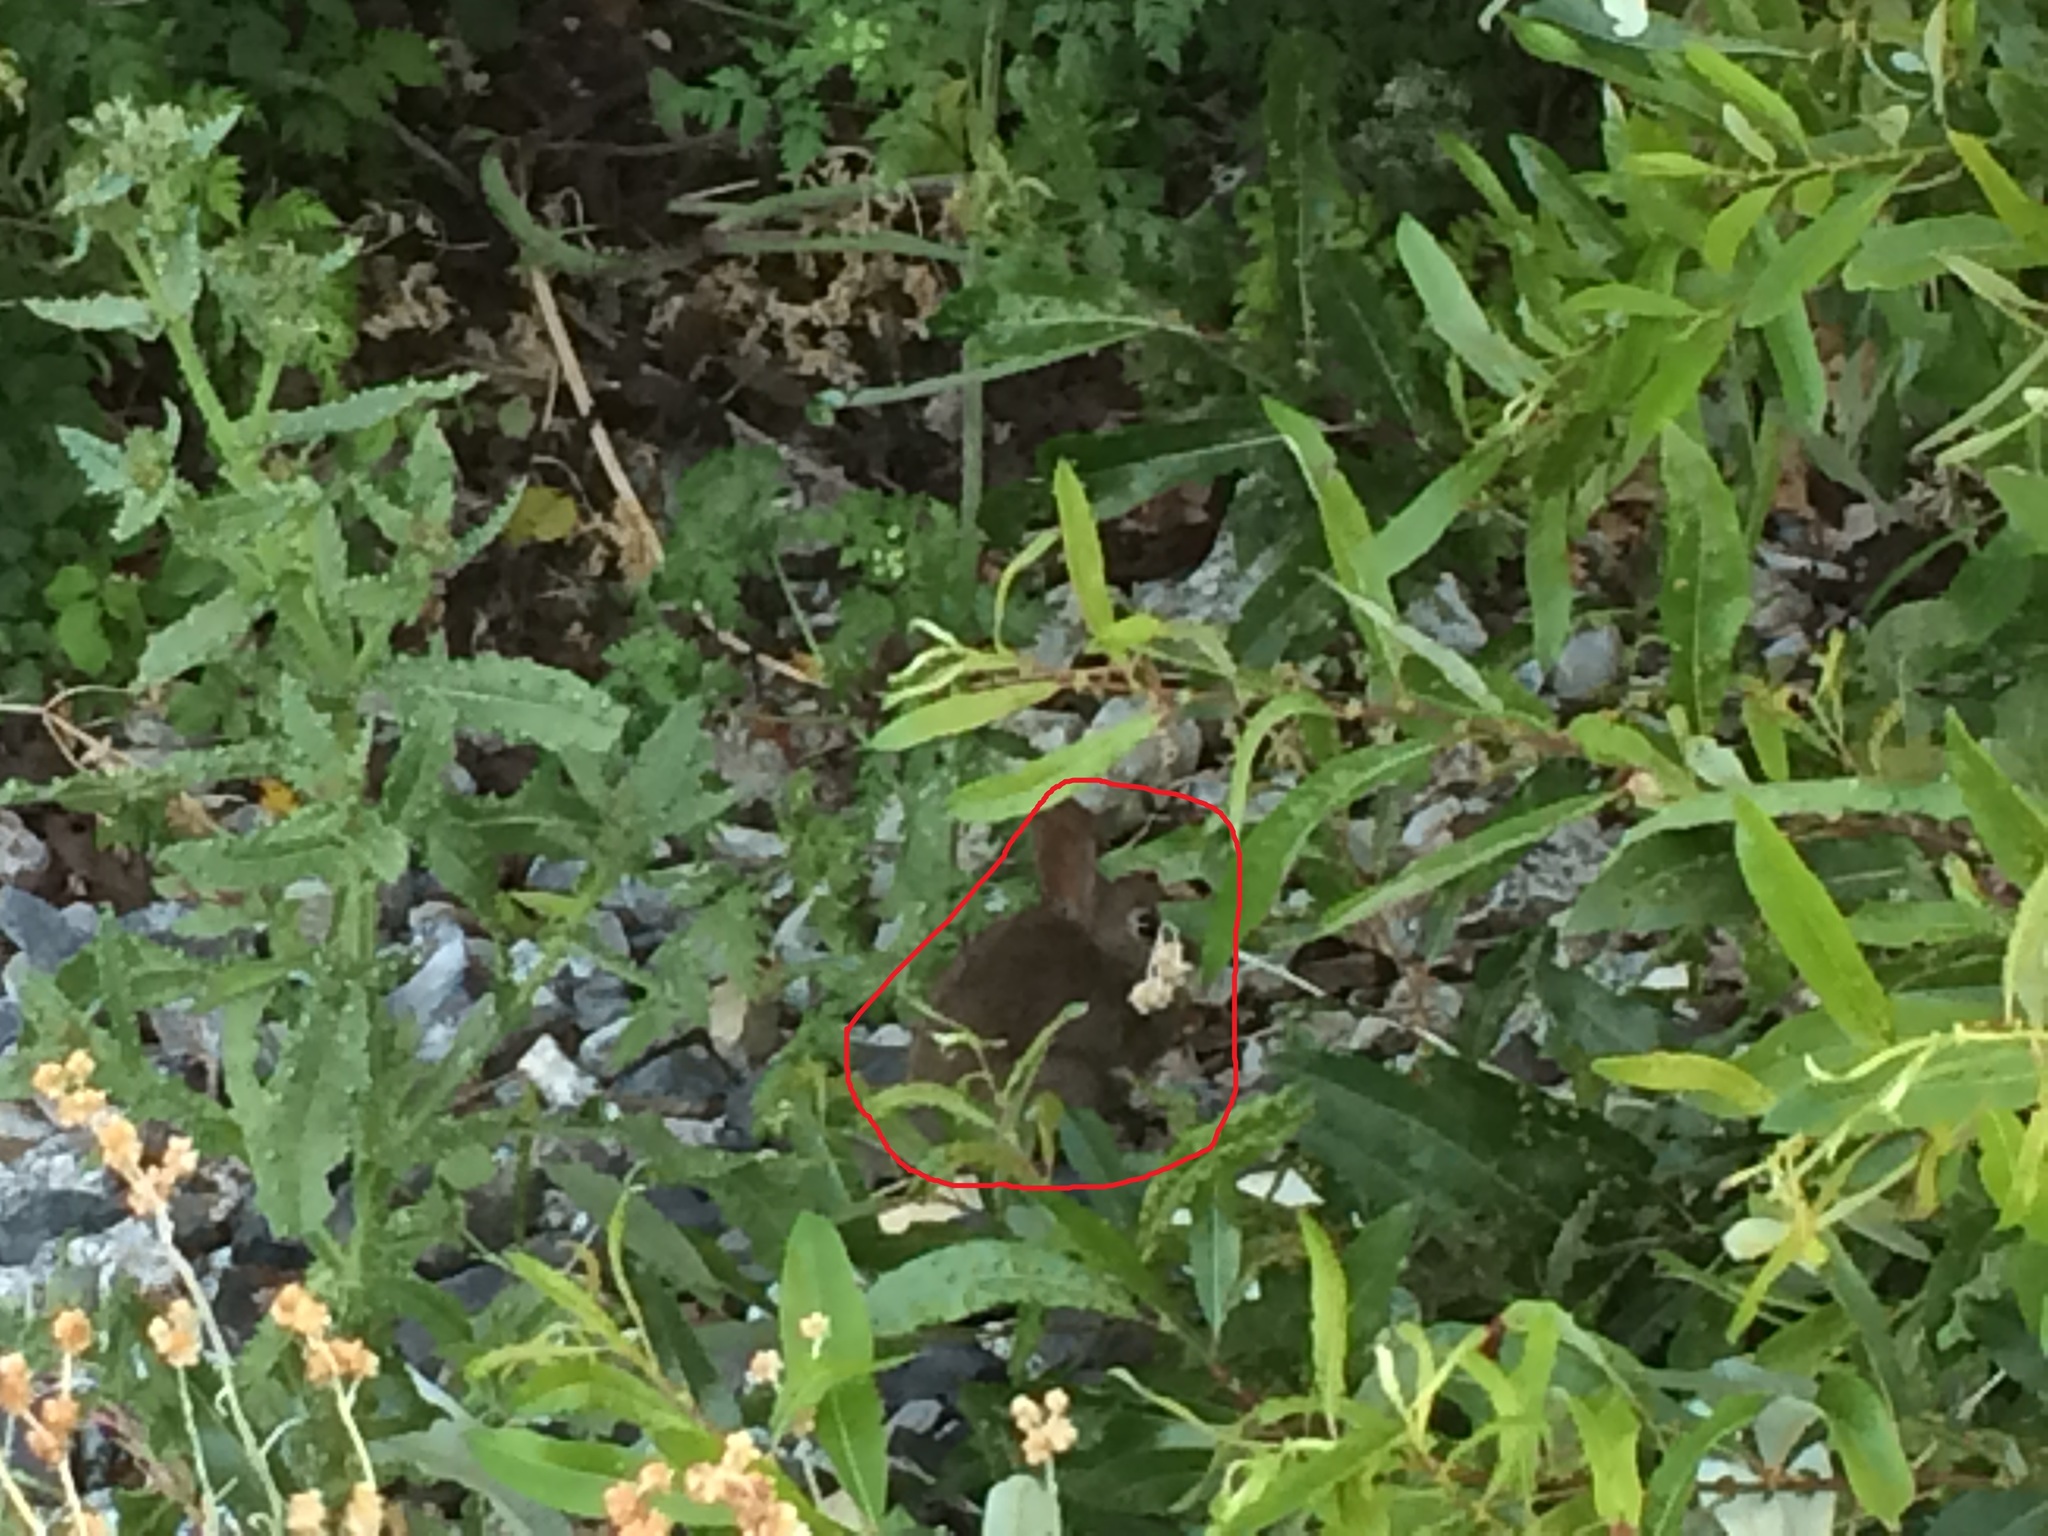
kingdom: Animalia
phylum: Chordata
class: Mammalia
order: Lagomorpha
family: Leporidae
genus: Sylvilagus
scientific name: Sylvilagus bachmani
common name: Brush rabbit
